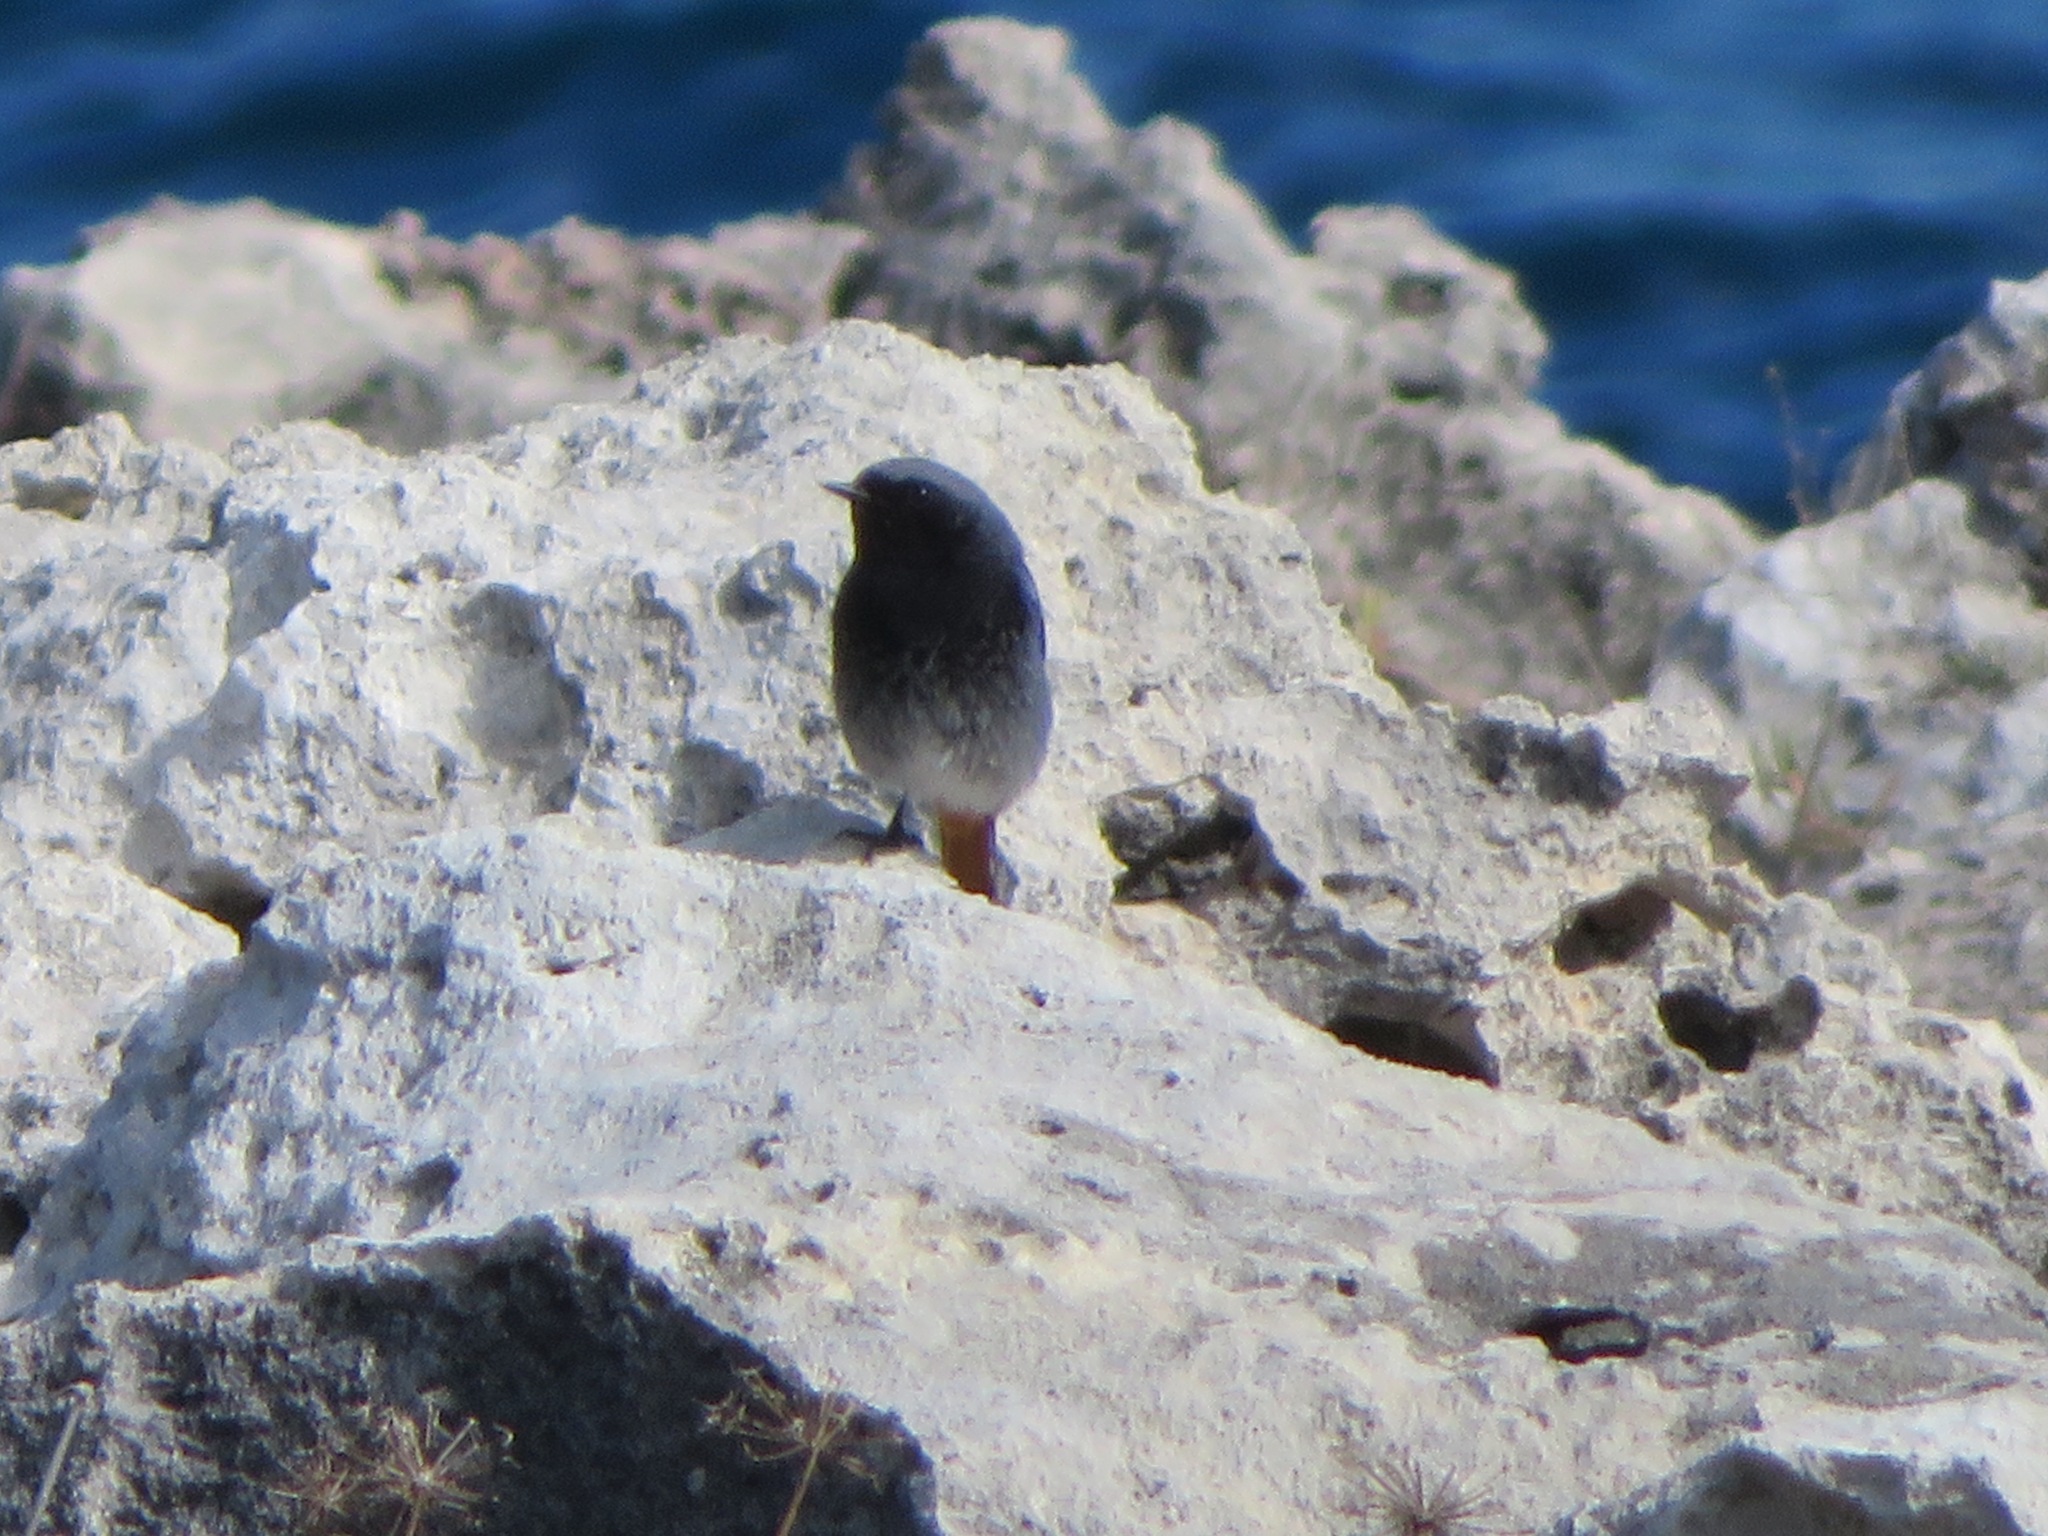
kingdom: Animalia
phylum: Chordata
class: Aves
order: Passeriformes
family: Muscicapidae
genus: Phoenicurus
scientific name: Phoenicurus ochruros
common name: Black redstart
